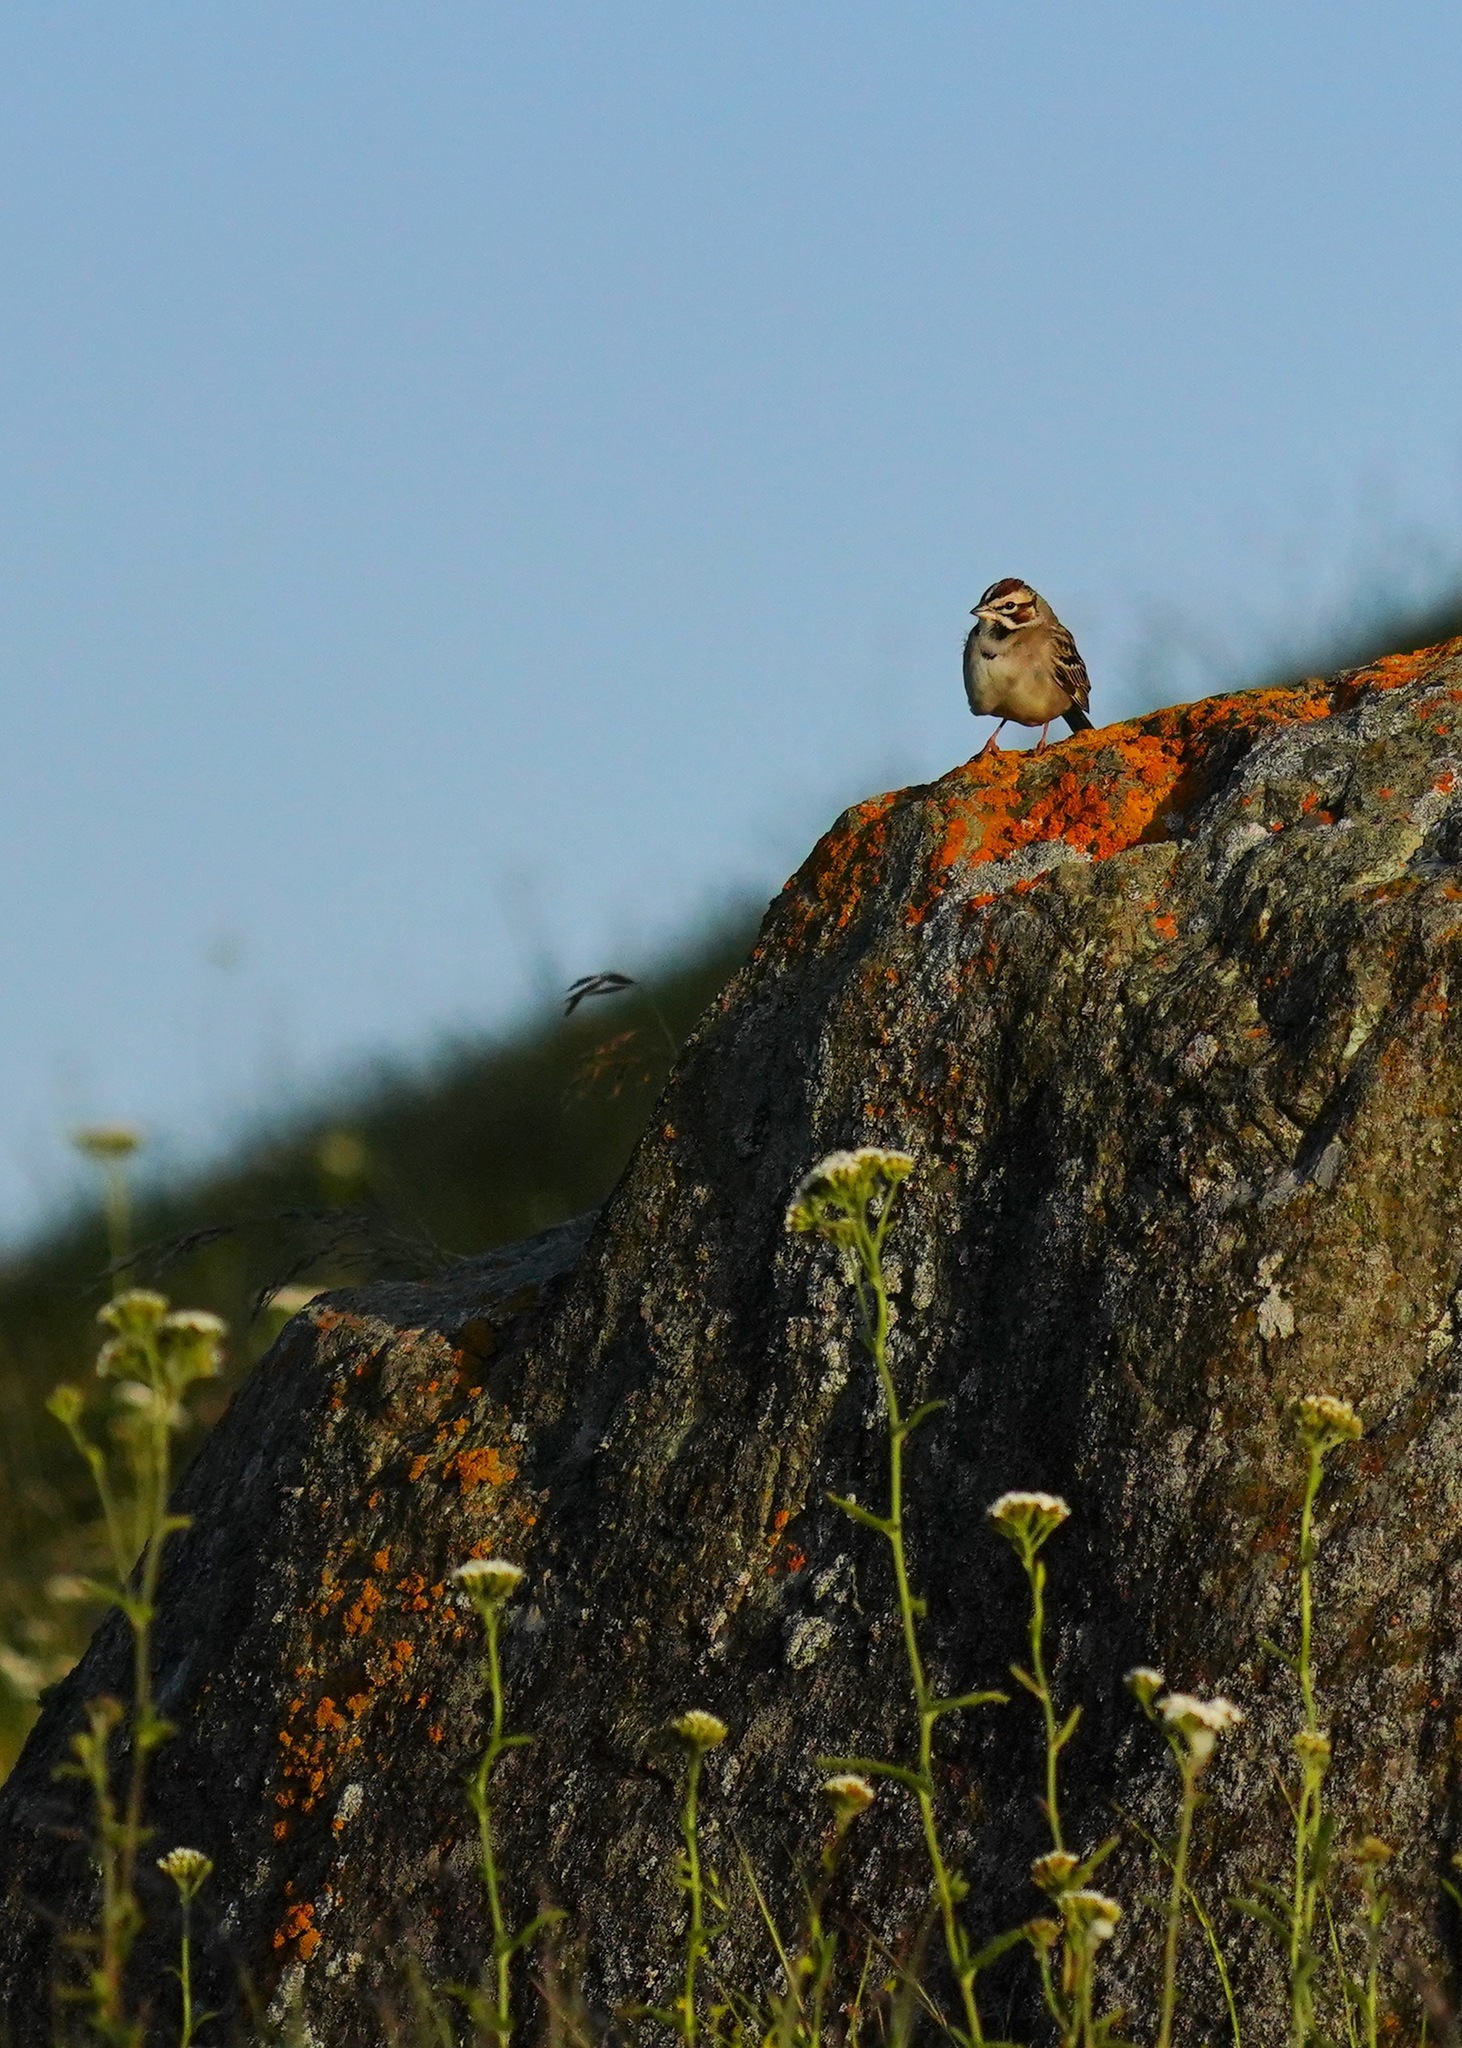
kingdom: Animalia
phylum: Chordata
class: Aves
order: Passeriformes
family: Passerellidae
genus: Chondestes
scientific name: Chondestes grammacus
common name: Lark sparrow
